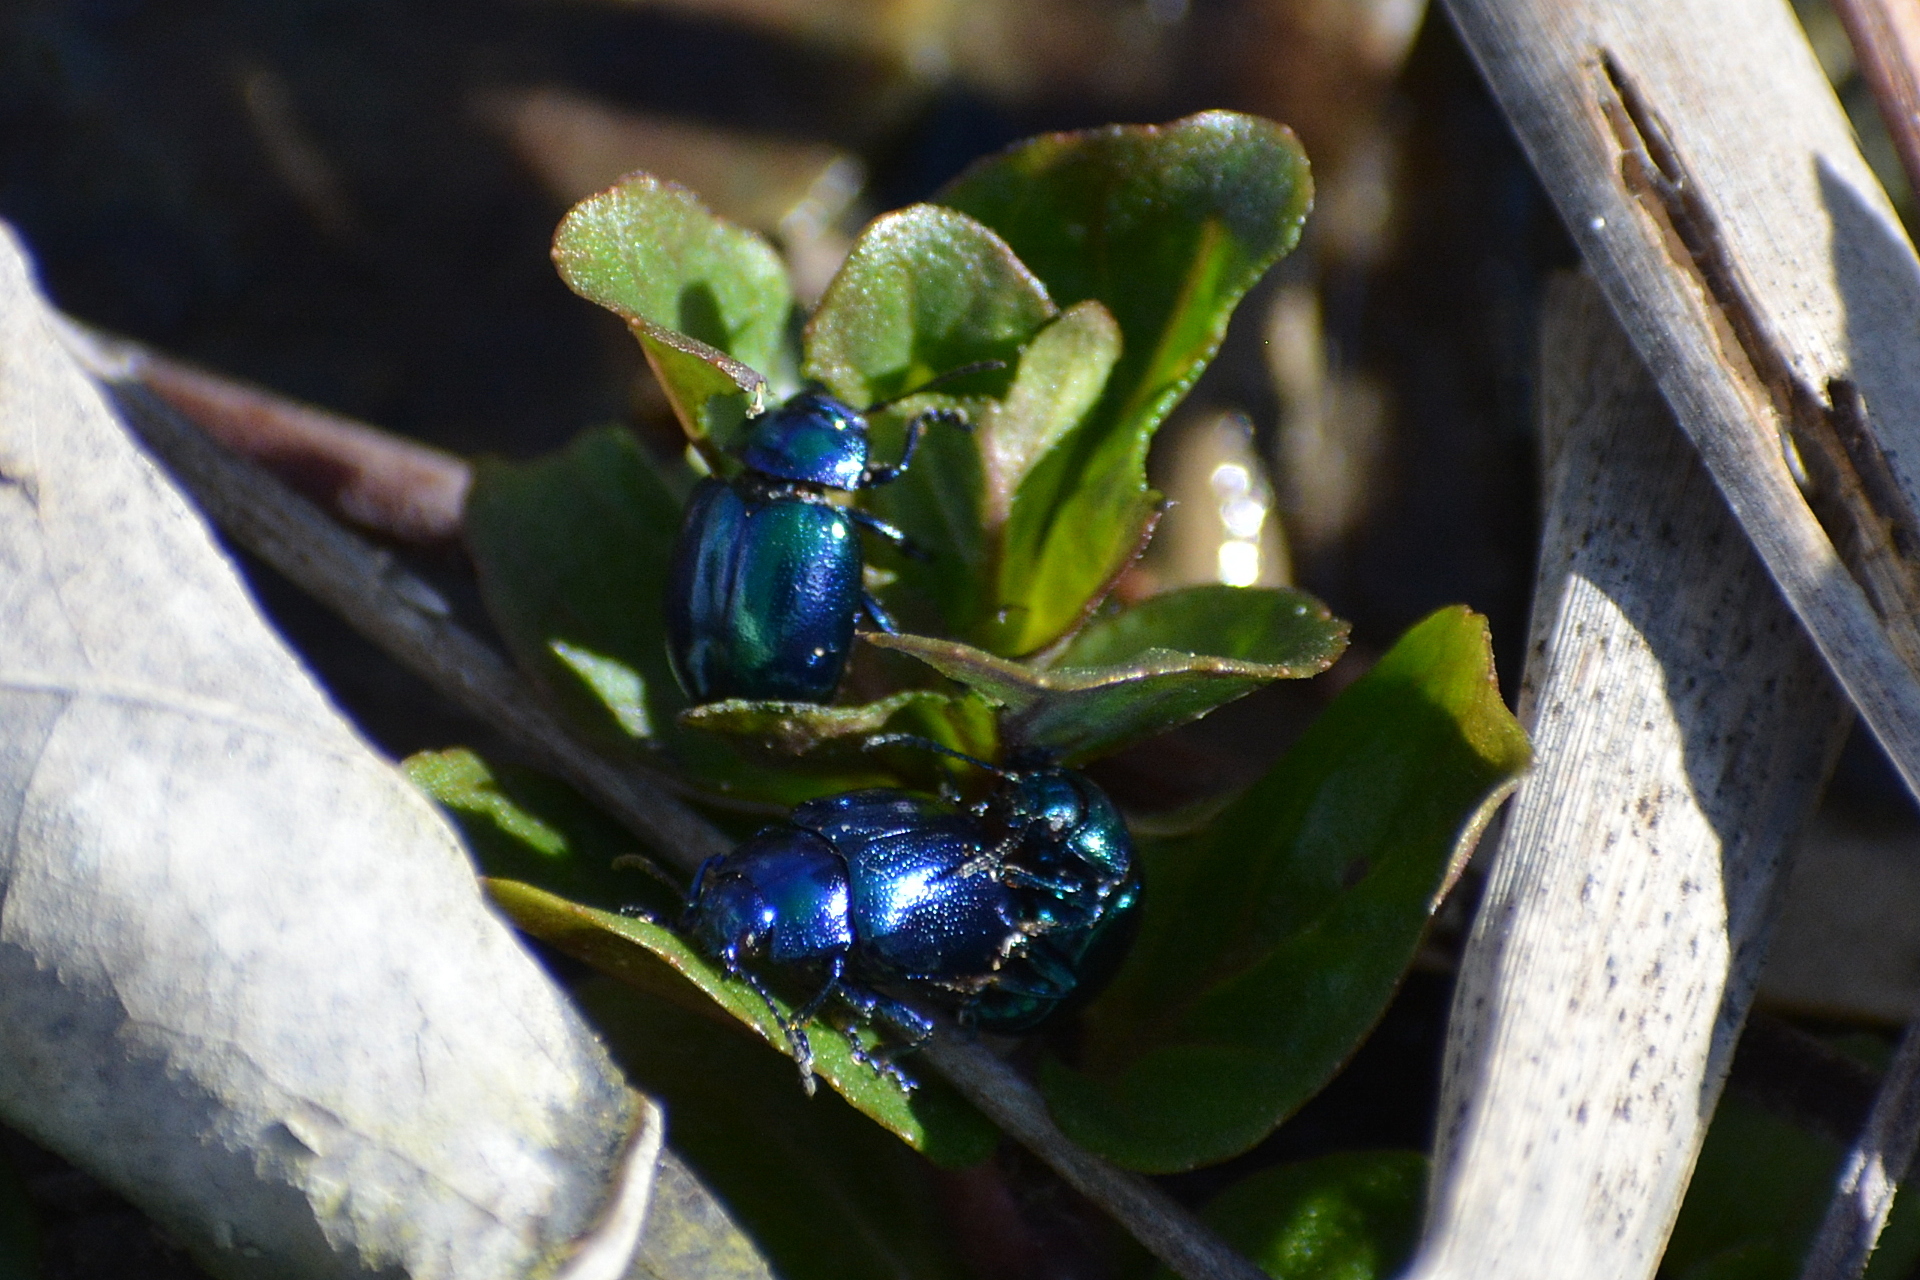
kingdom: Animalia
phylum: Arthropoda
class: Insecta
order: Coleoptera
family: Chrysomelidae
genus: Chrysolina
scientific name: Chrysolina coerulans
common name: Blue mint beetle
